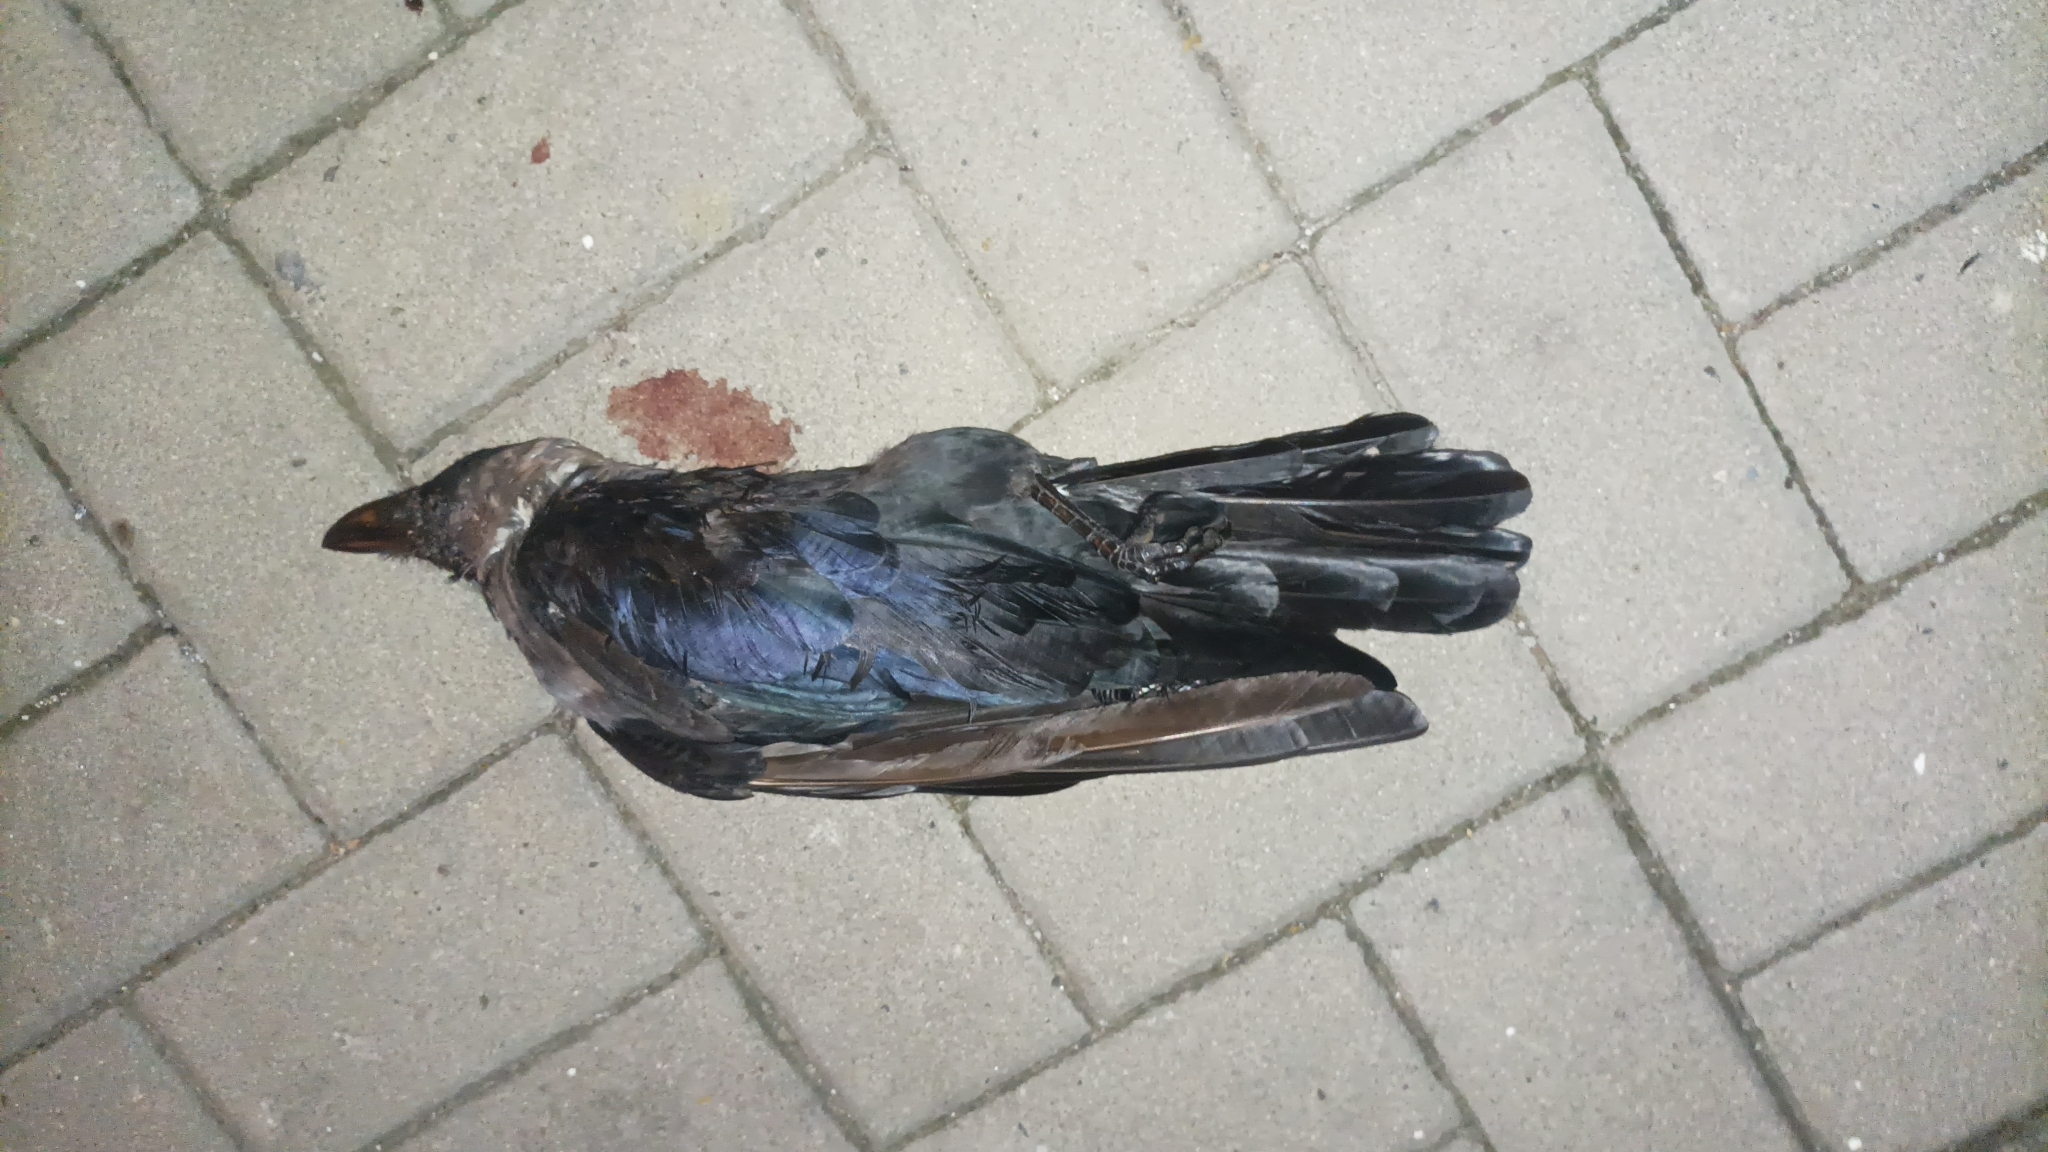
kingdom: Animalia
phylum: Chordata
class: Aves
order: Passeriformes
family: Corvidae
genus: Corvus
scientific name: Corvus splendens
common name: House crow
